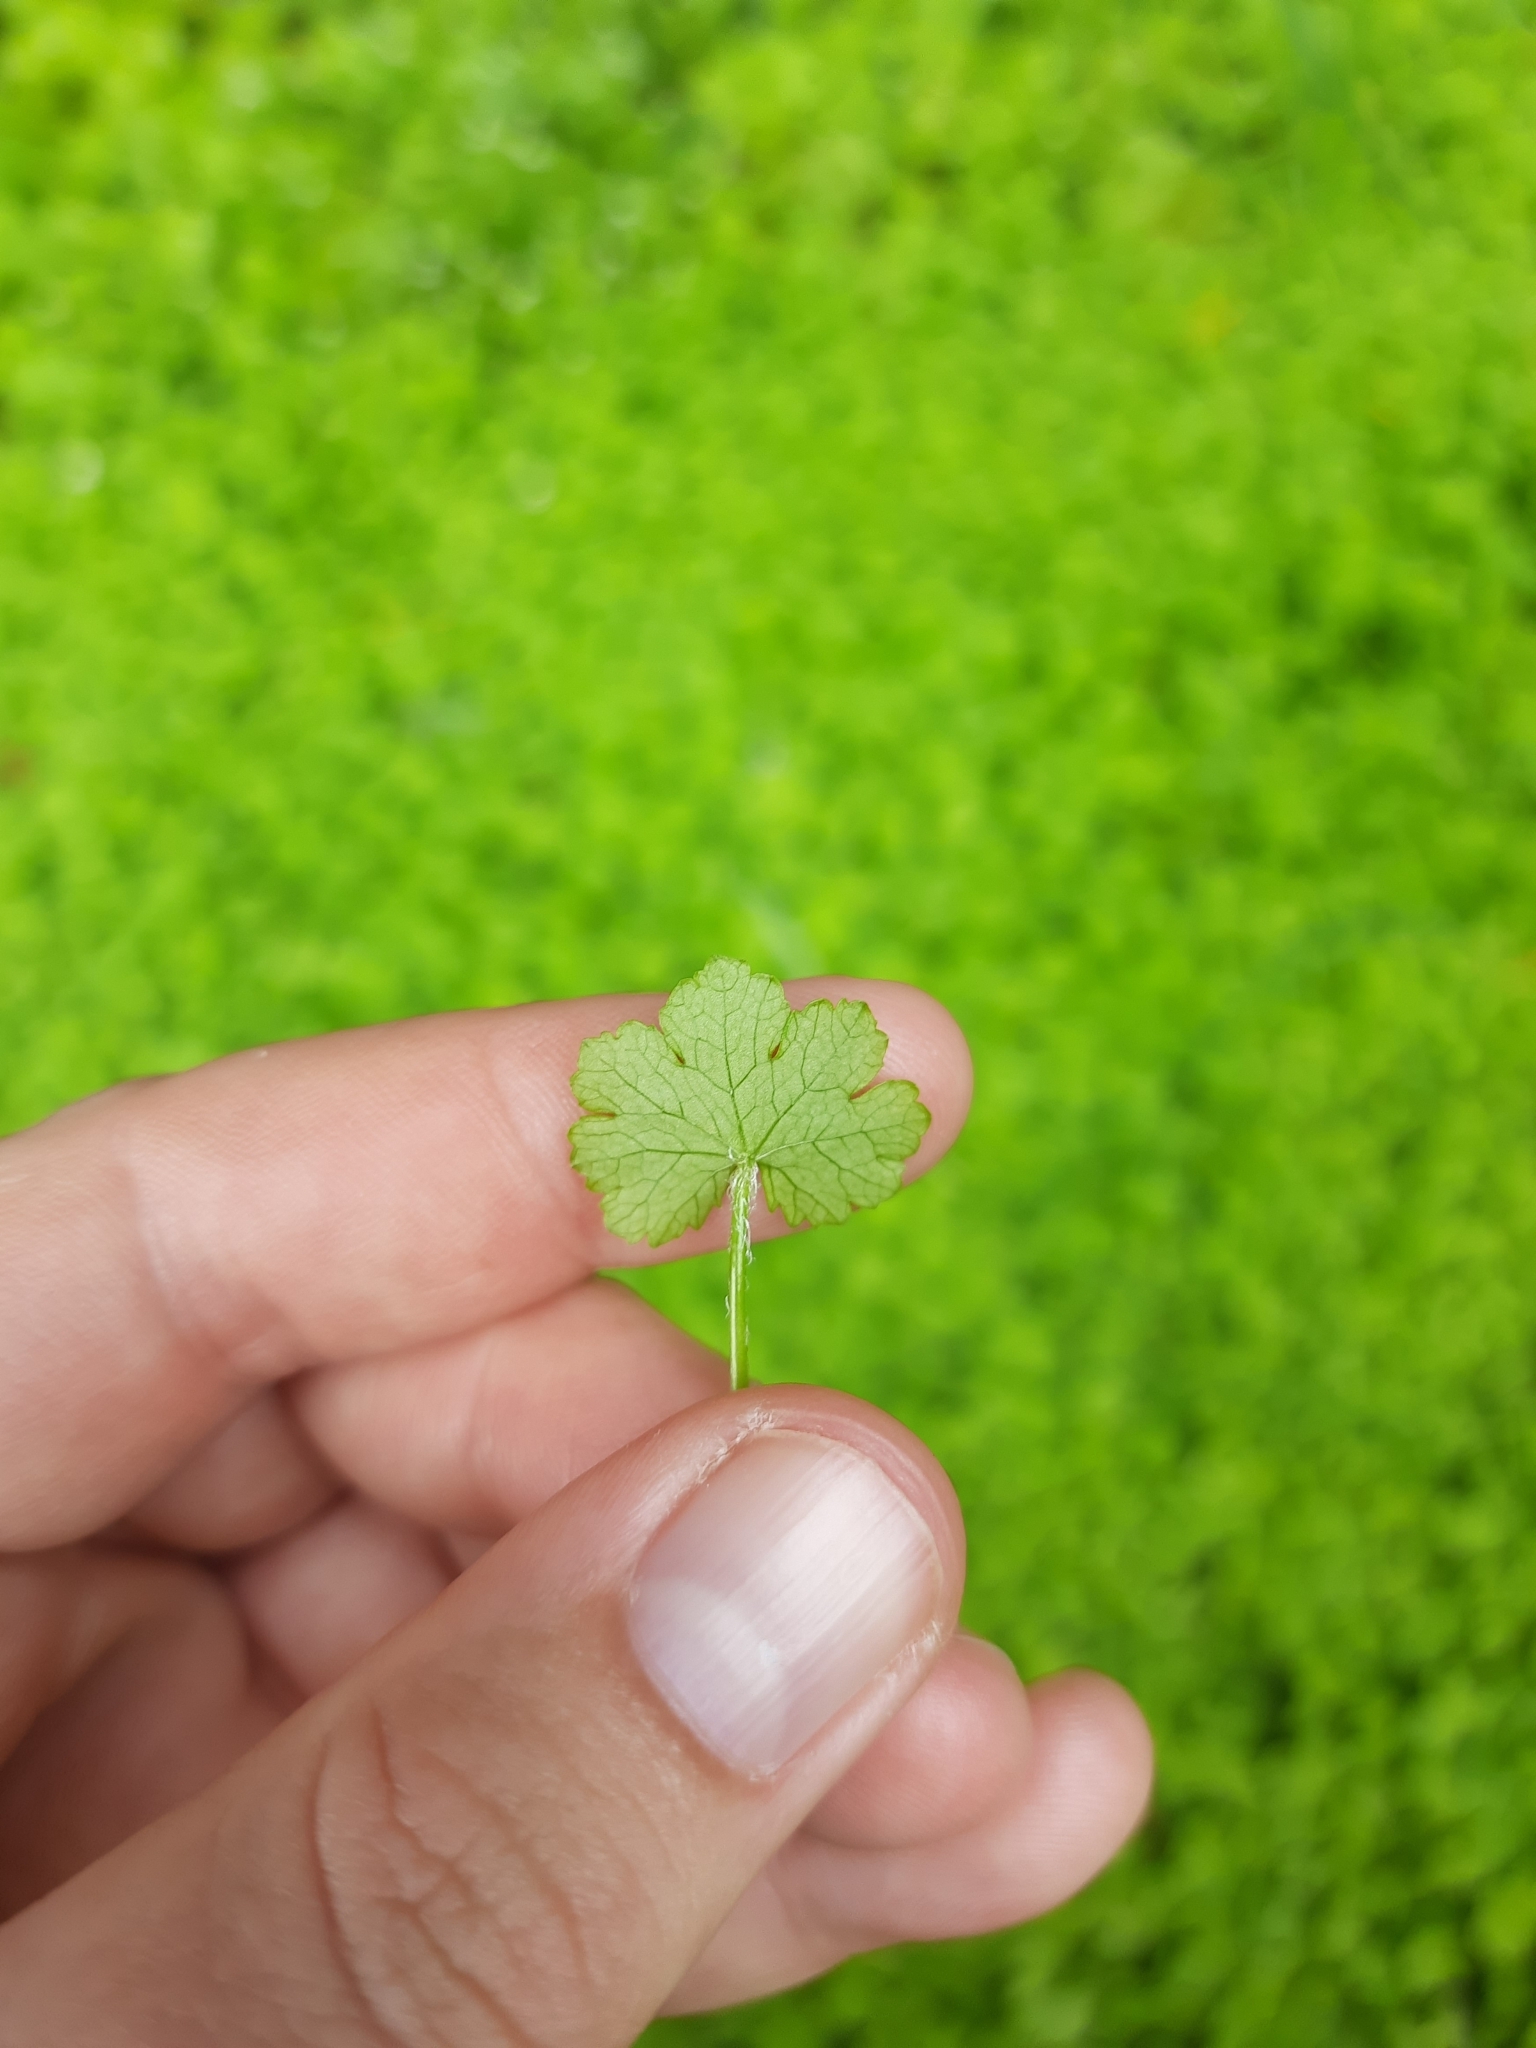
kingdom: Plantae
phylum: Tracheophyta
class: Magnoliopsida
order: Apiales
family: Araliaceae
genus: Hydrocotyle
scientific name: Hydrocotyle heteromeria
